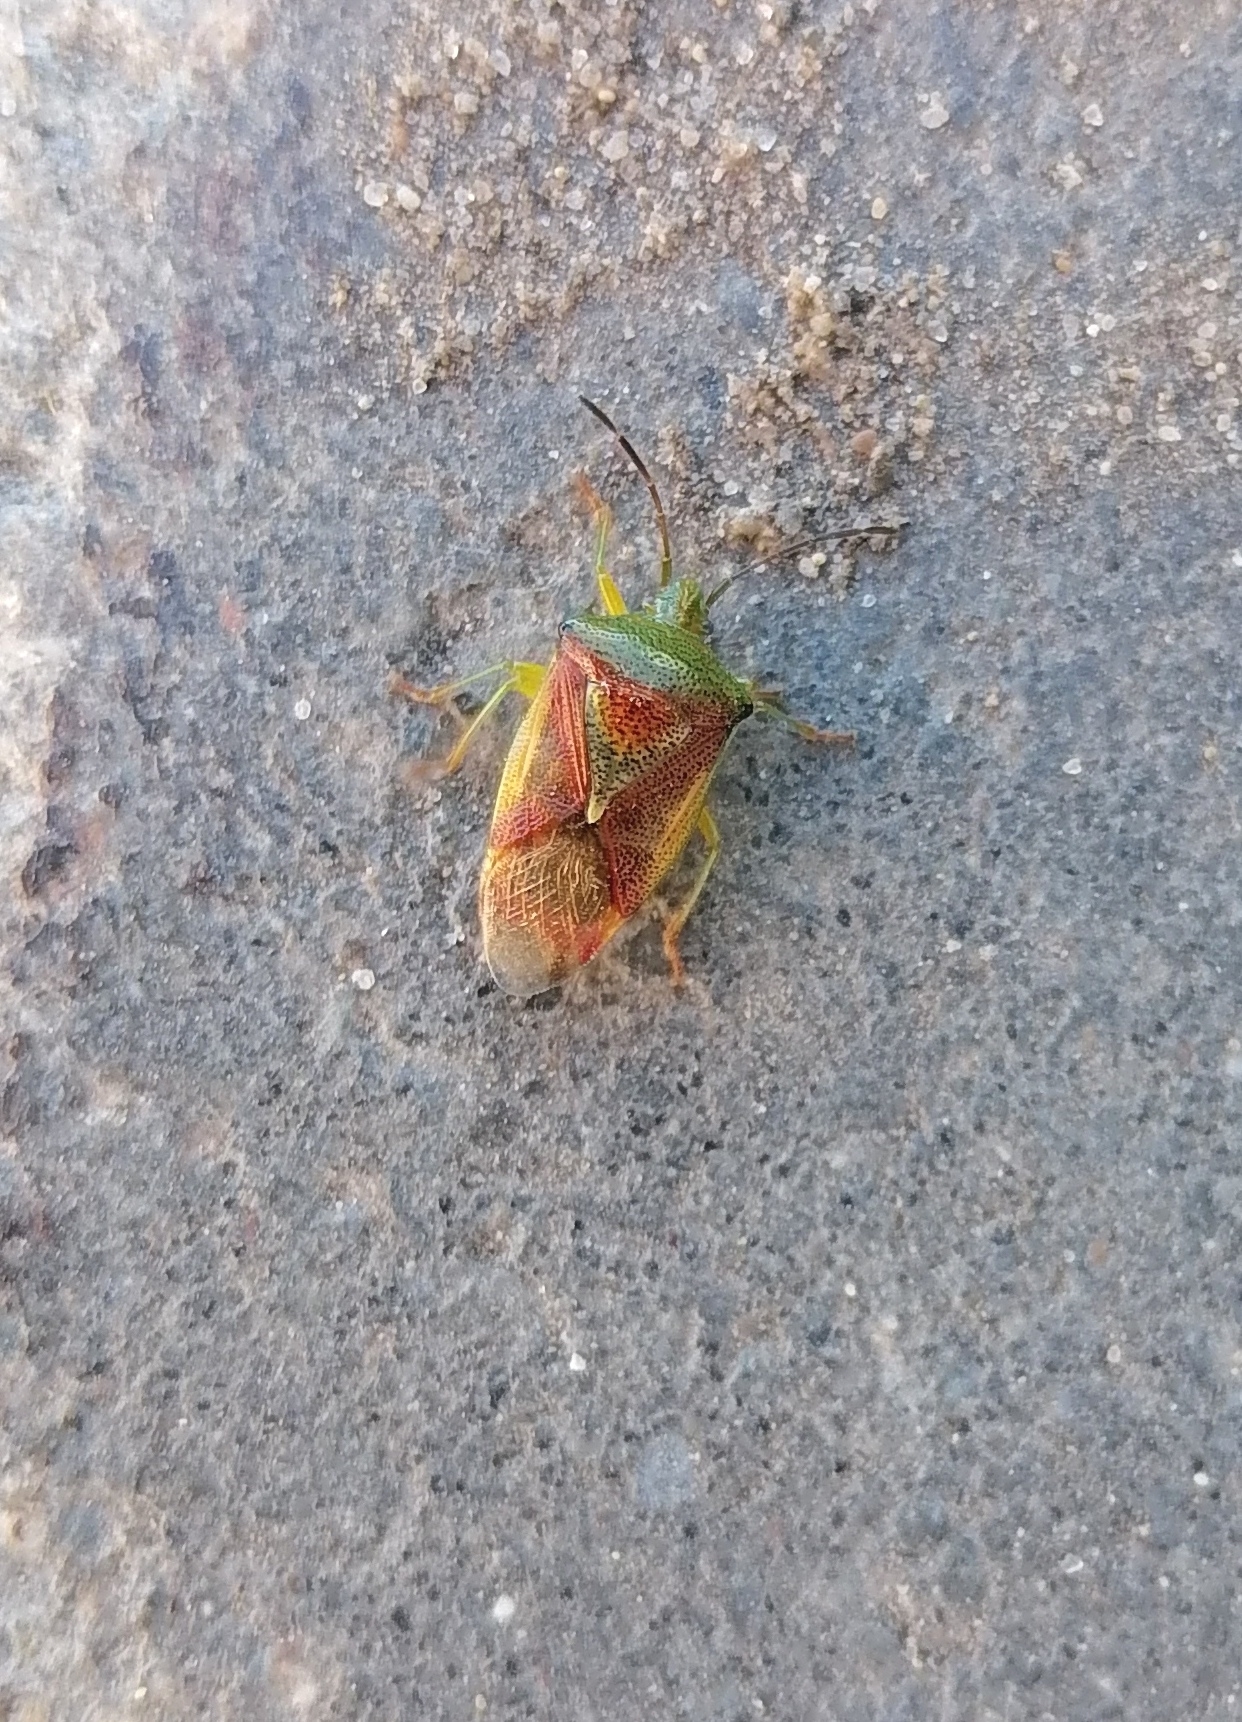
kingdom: Animalia
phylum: Arthropoda
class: Insecta
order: Hemiptera
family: Acanthosomatidae
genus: Elasmostethus
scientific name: Elasmostethus
